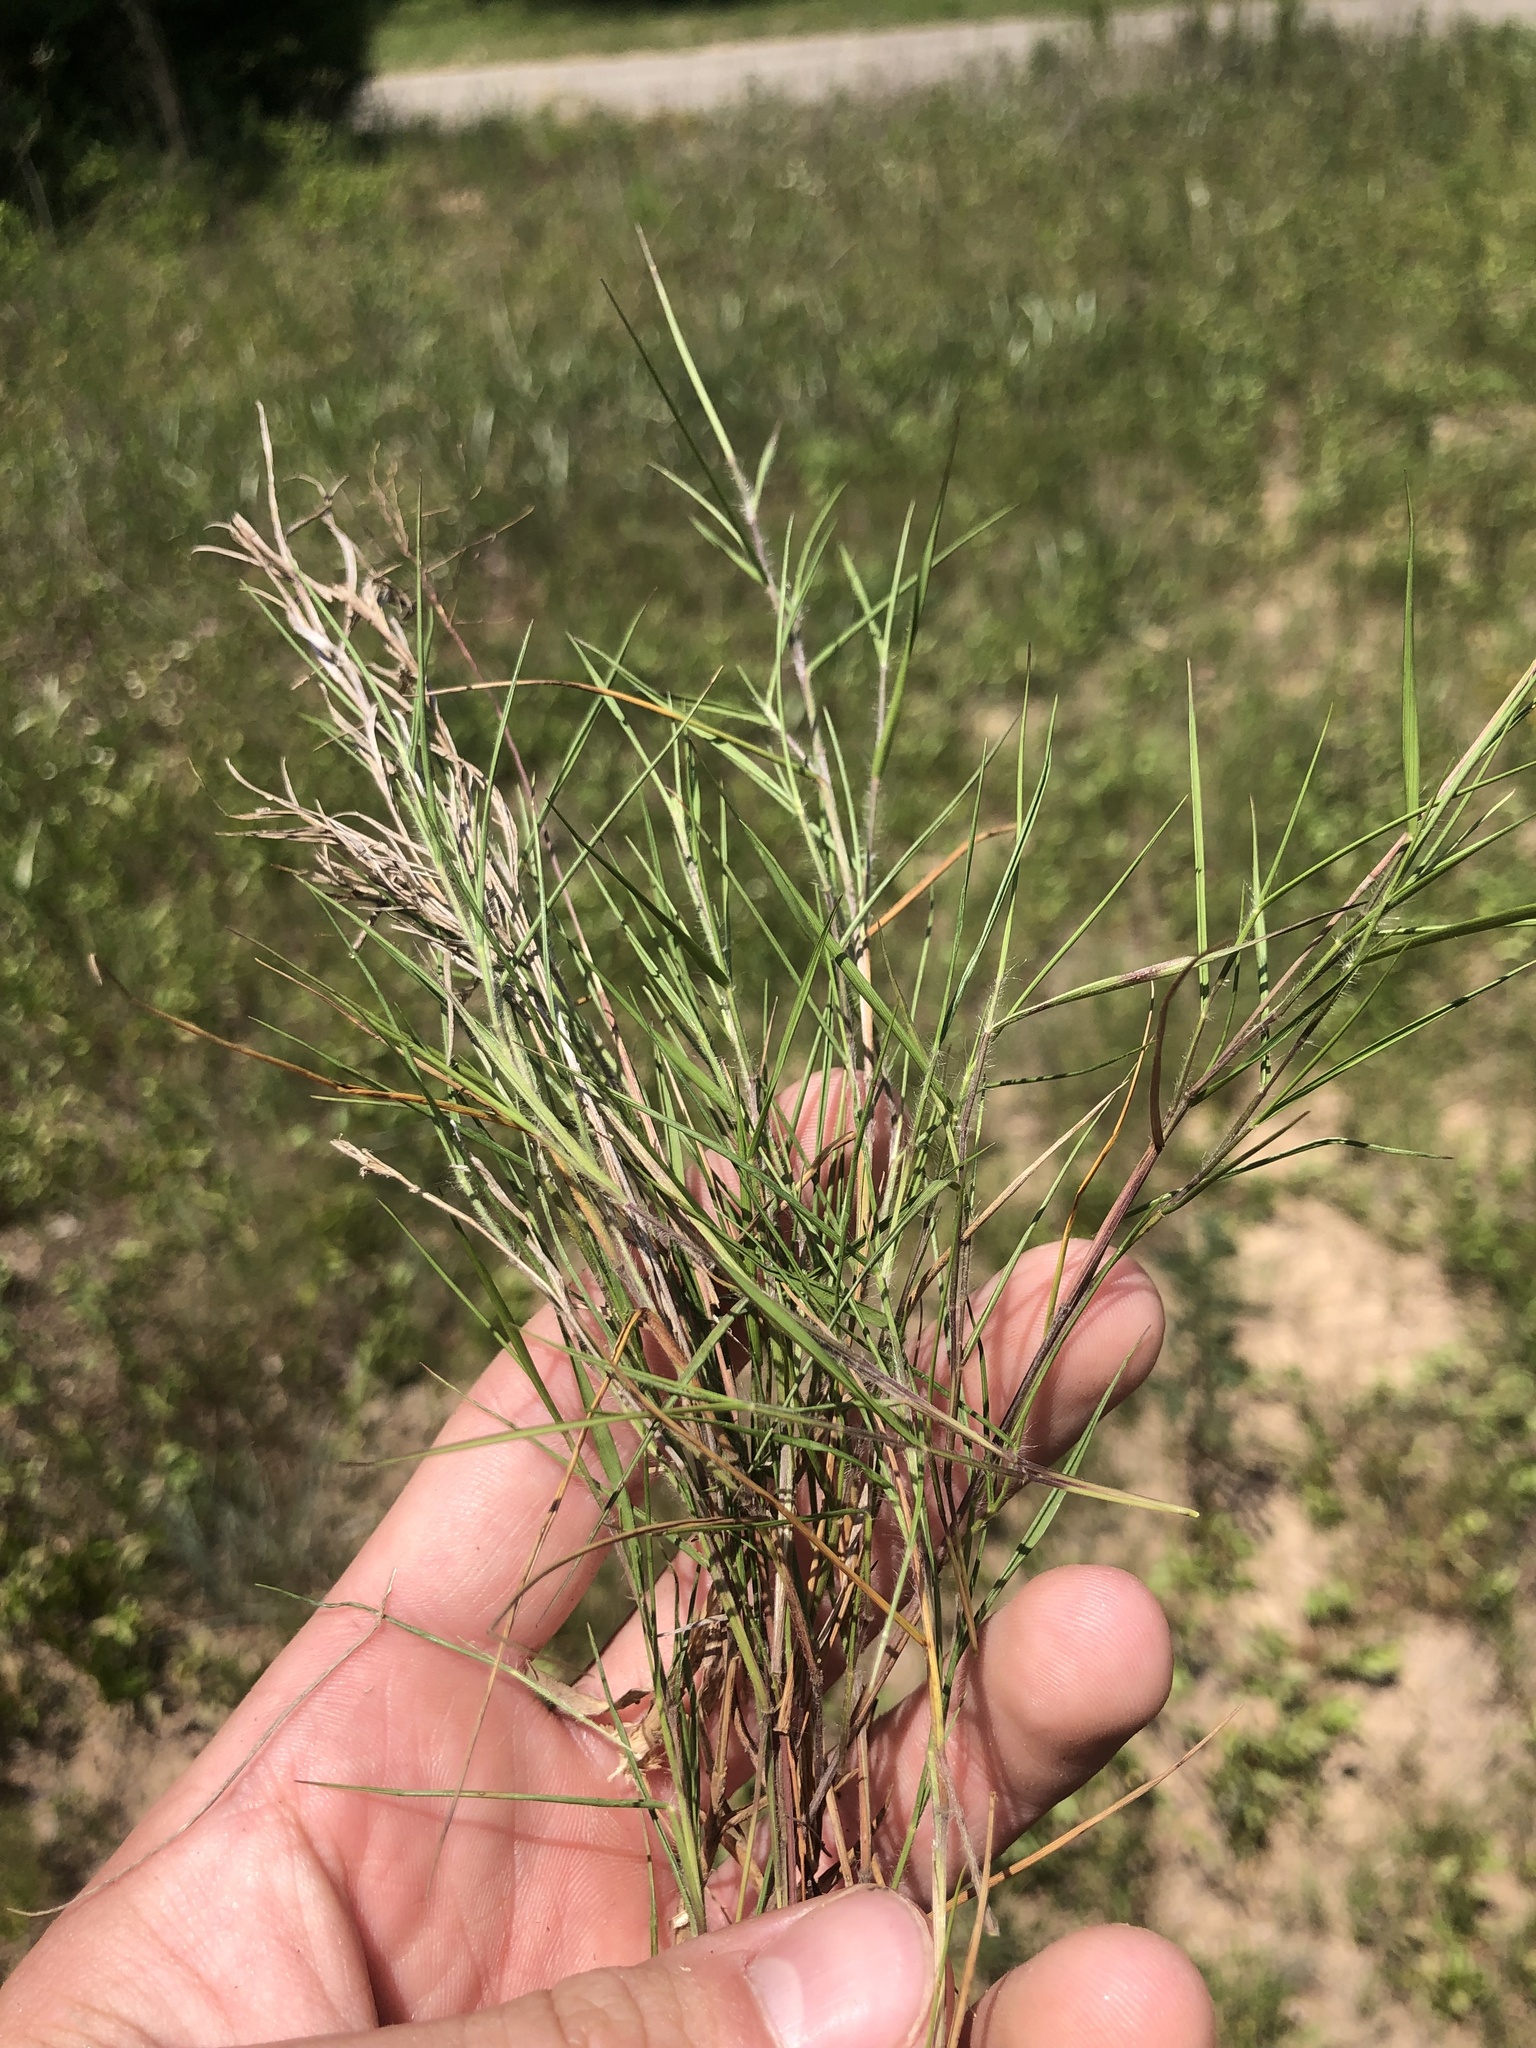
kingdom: Plantae
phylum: Tracheophyta
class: Liliopsida
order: Poales
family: Poaceae
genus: Dichanthelium
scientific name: Dichanthelium filiramum
